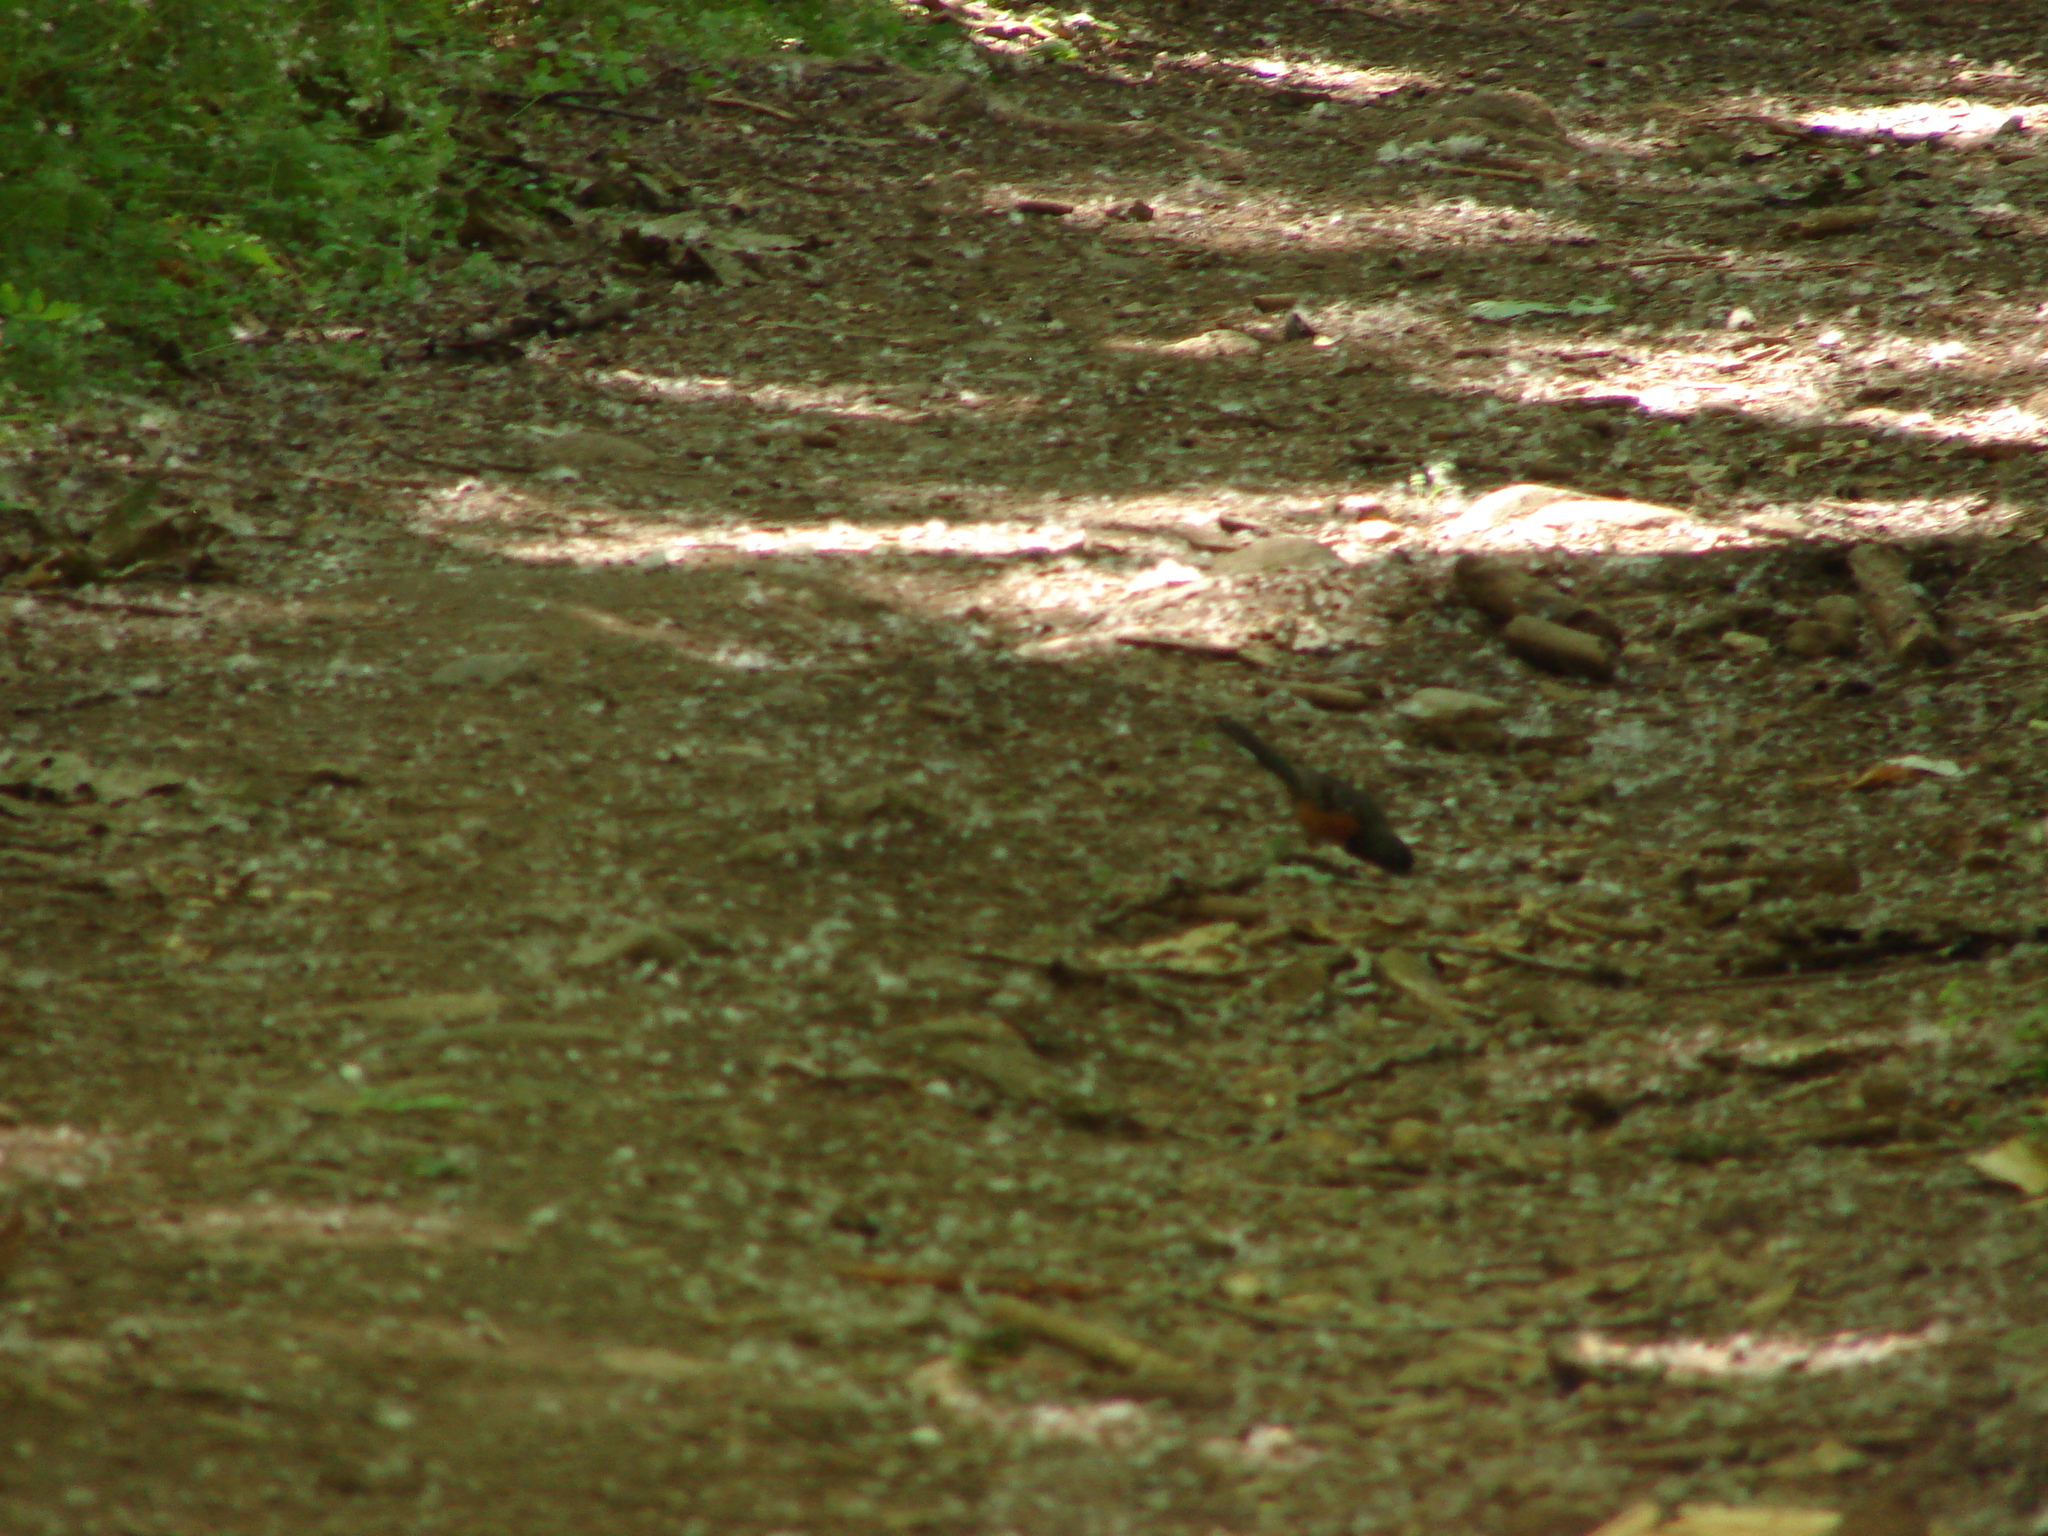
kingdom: Animalia
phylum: Chordata
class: Aves
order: Passeriformes
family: Passerellidae
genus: Pipilo
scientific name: Pipilo maculatus
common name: Spotted towhee
